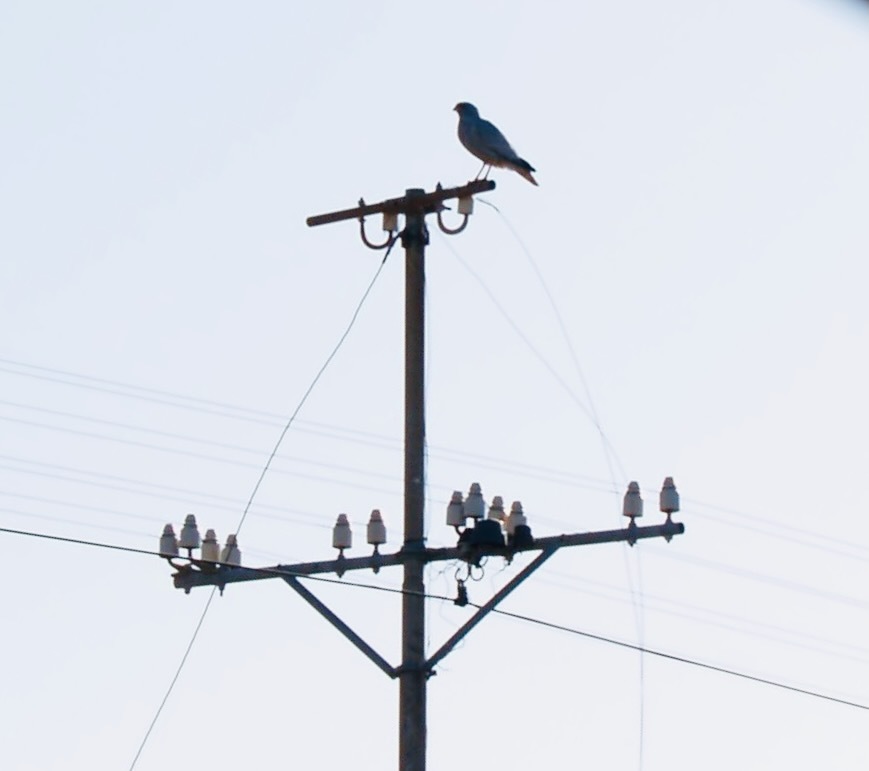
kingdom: Animalia
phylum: Chordata
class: Aves
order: Accipitriformes
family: Accipitridae
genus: Melierax
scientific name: Melierax metabates
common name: Dark chanting-goshawk
